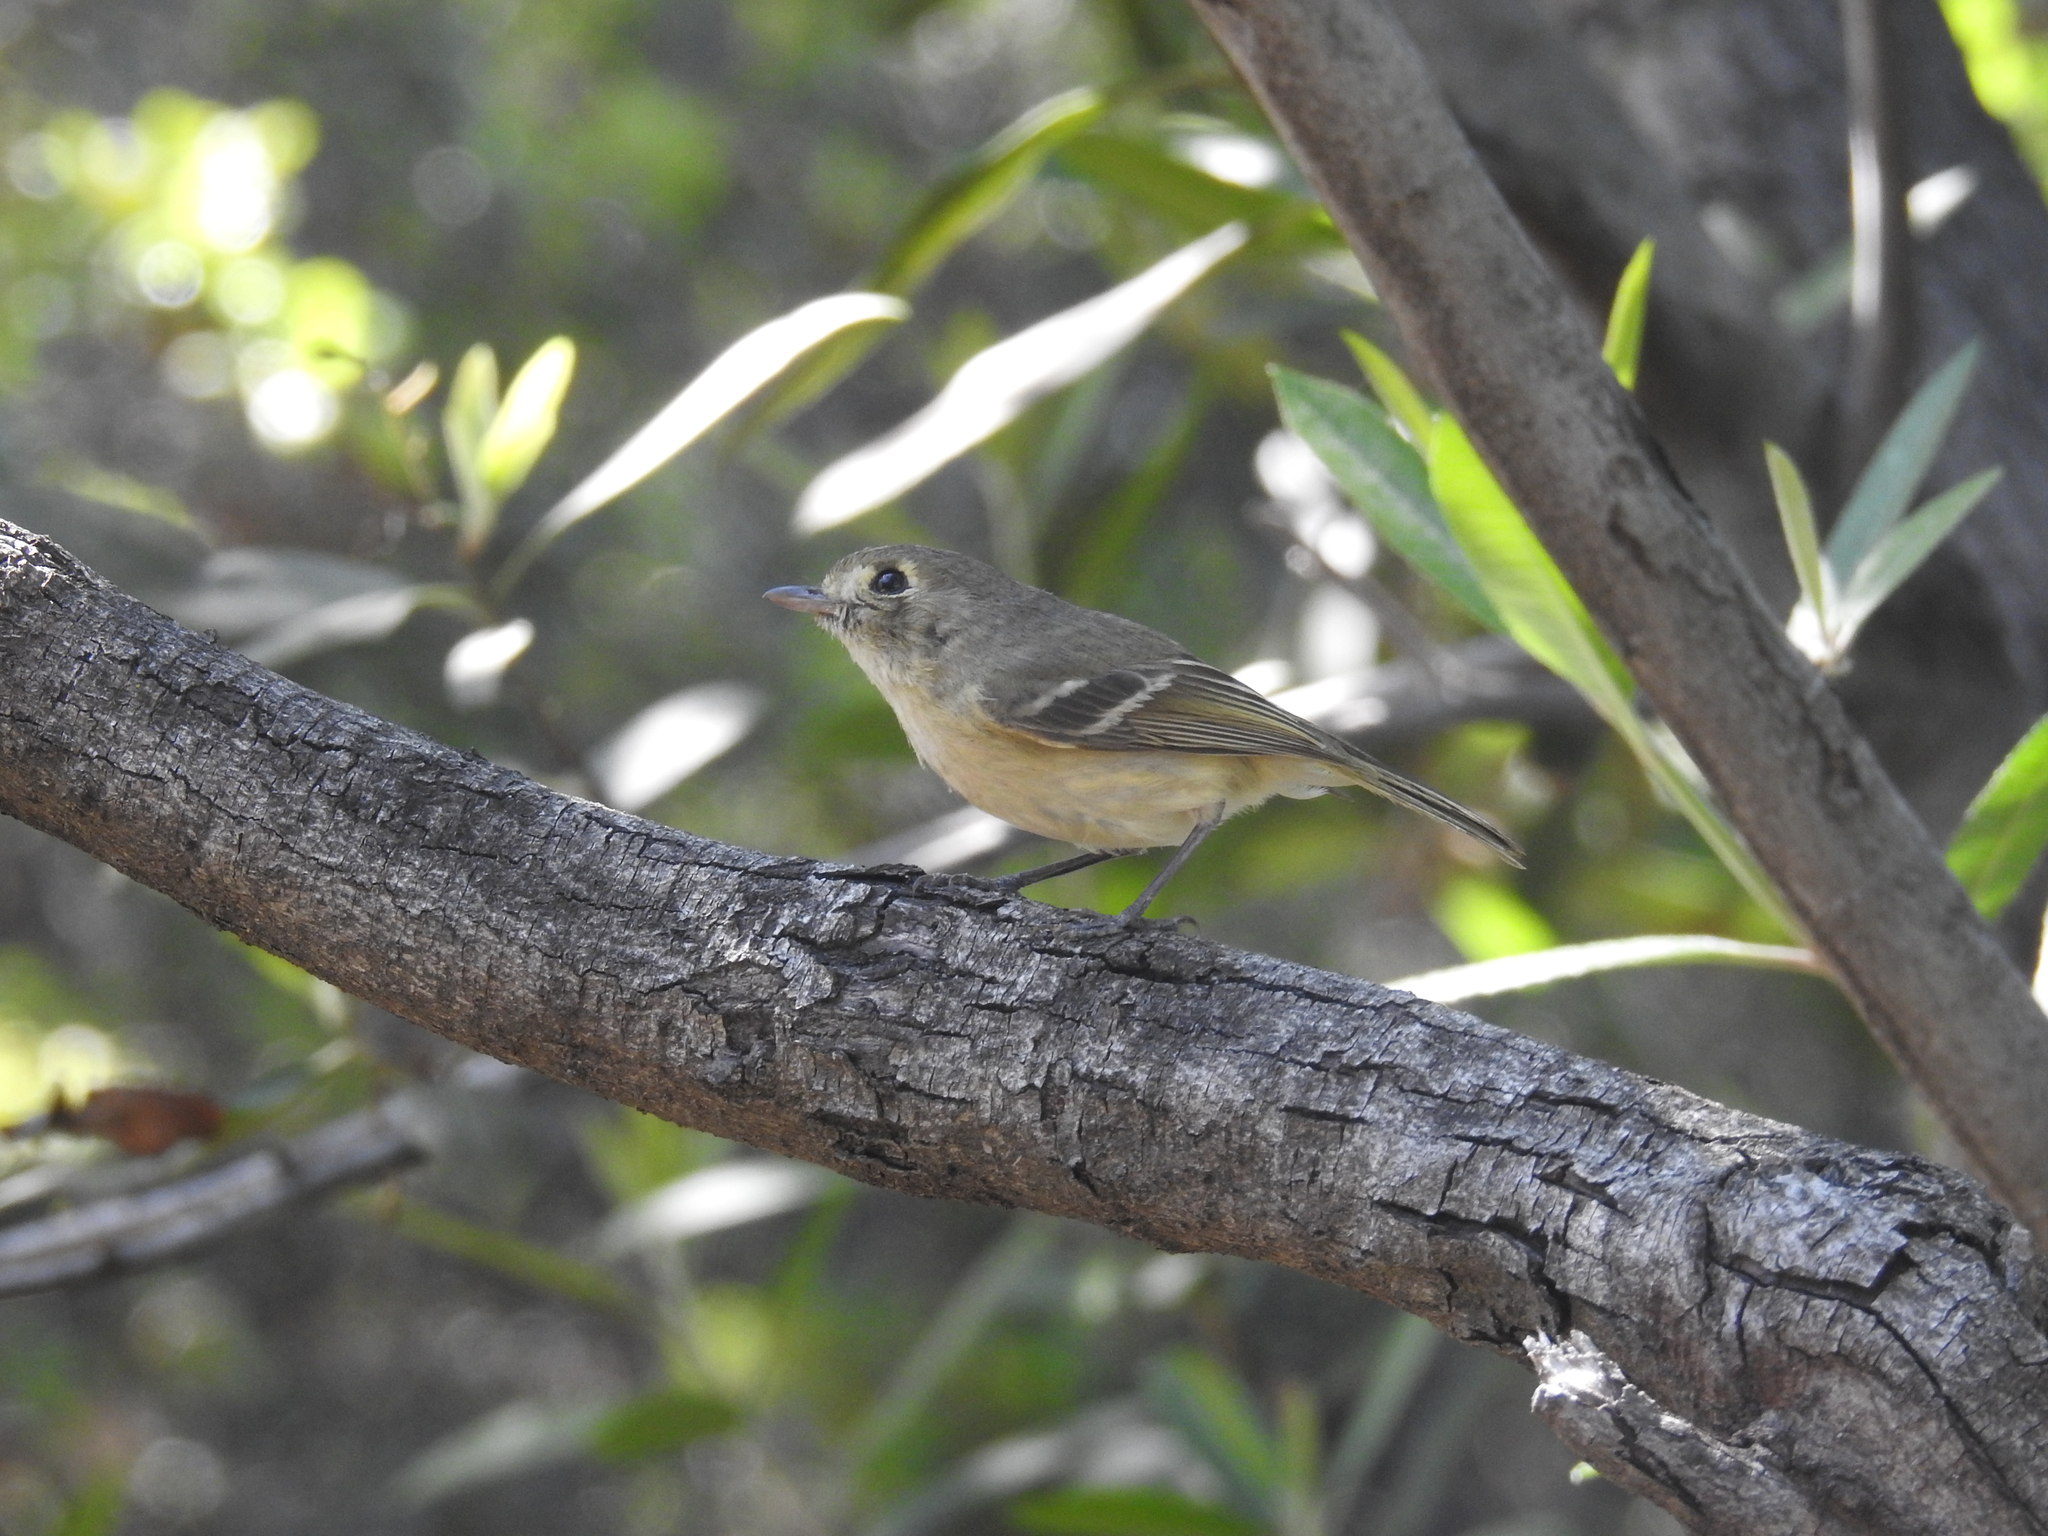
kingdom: Animalia
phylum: Chordata
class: Aves
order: Passeriformes
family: Vireonidae
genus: Vireo
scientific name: Vireo huttoni
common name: Hutton's vireo
